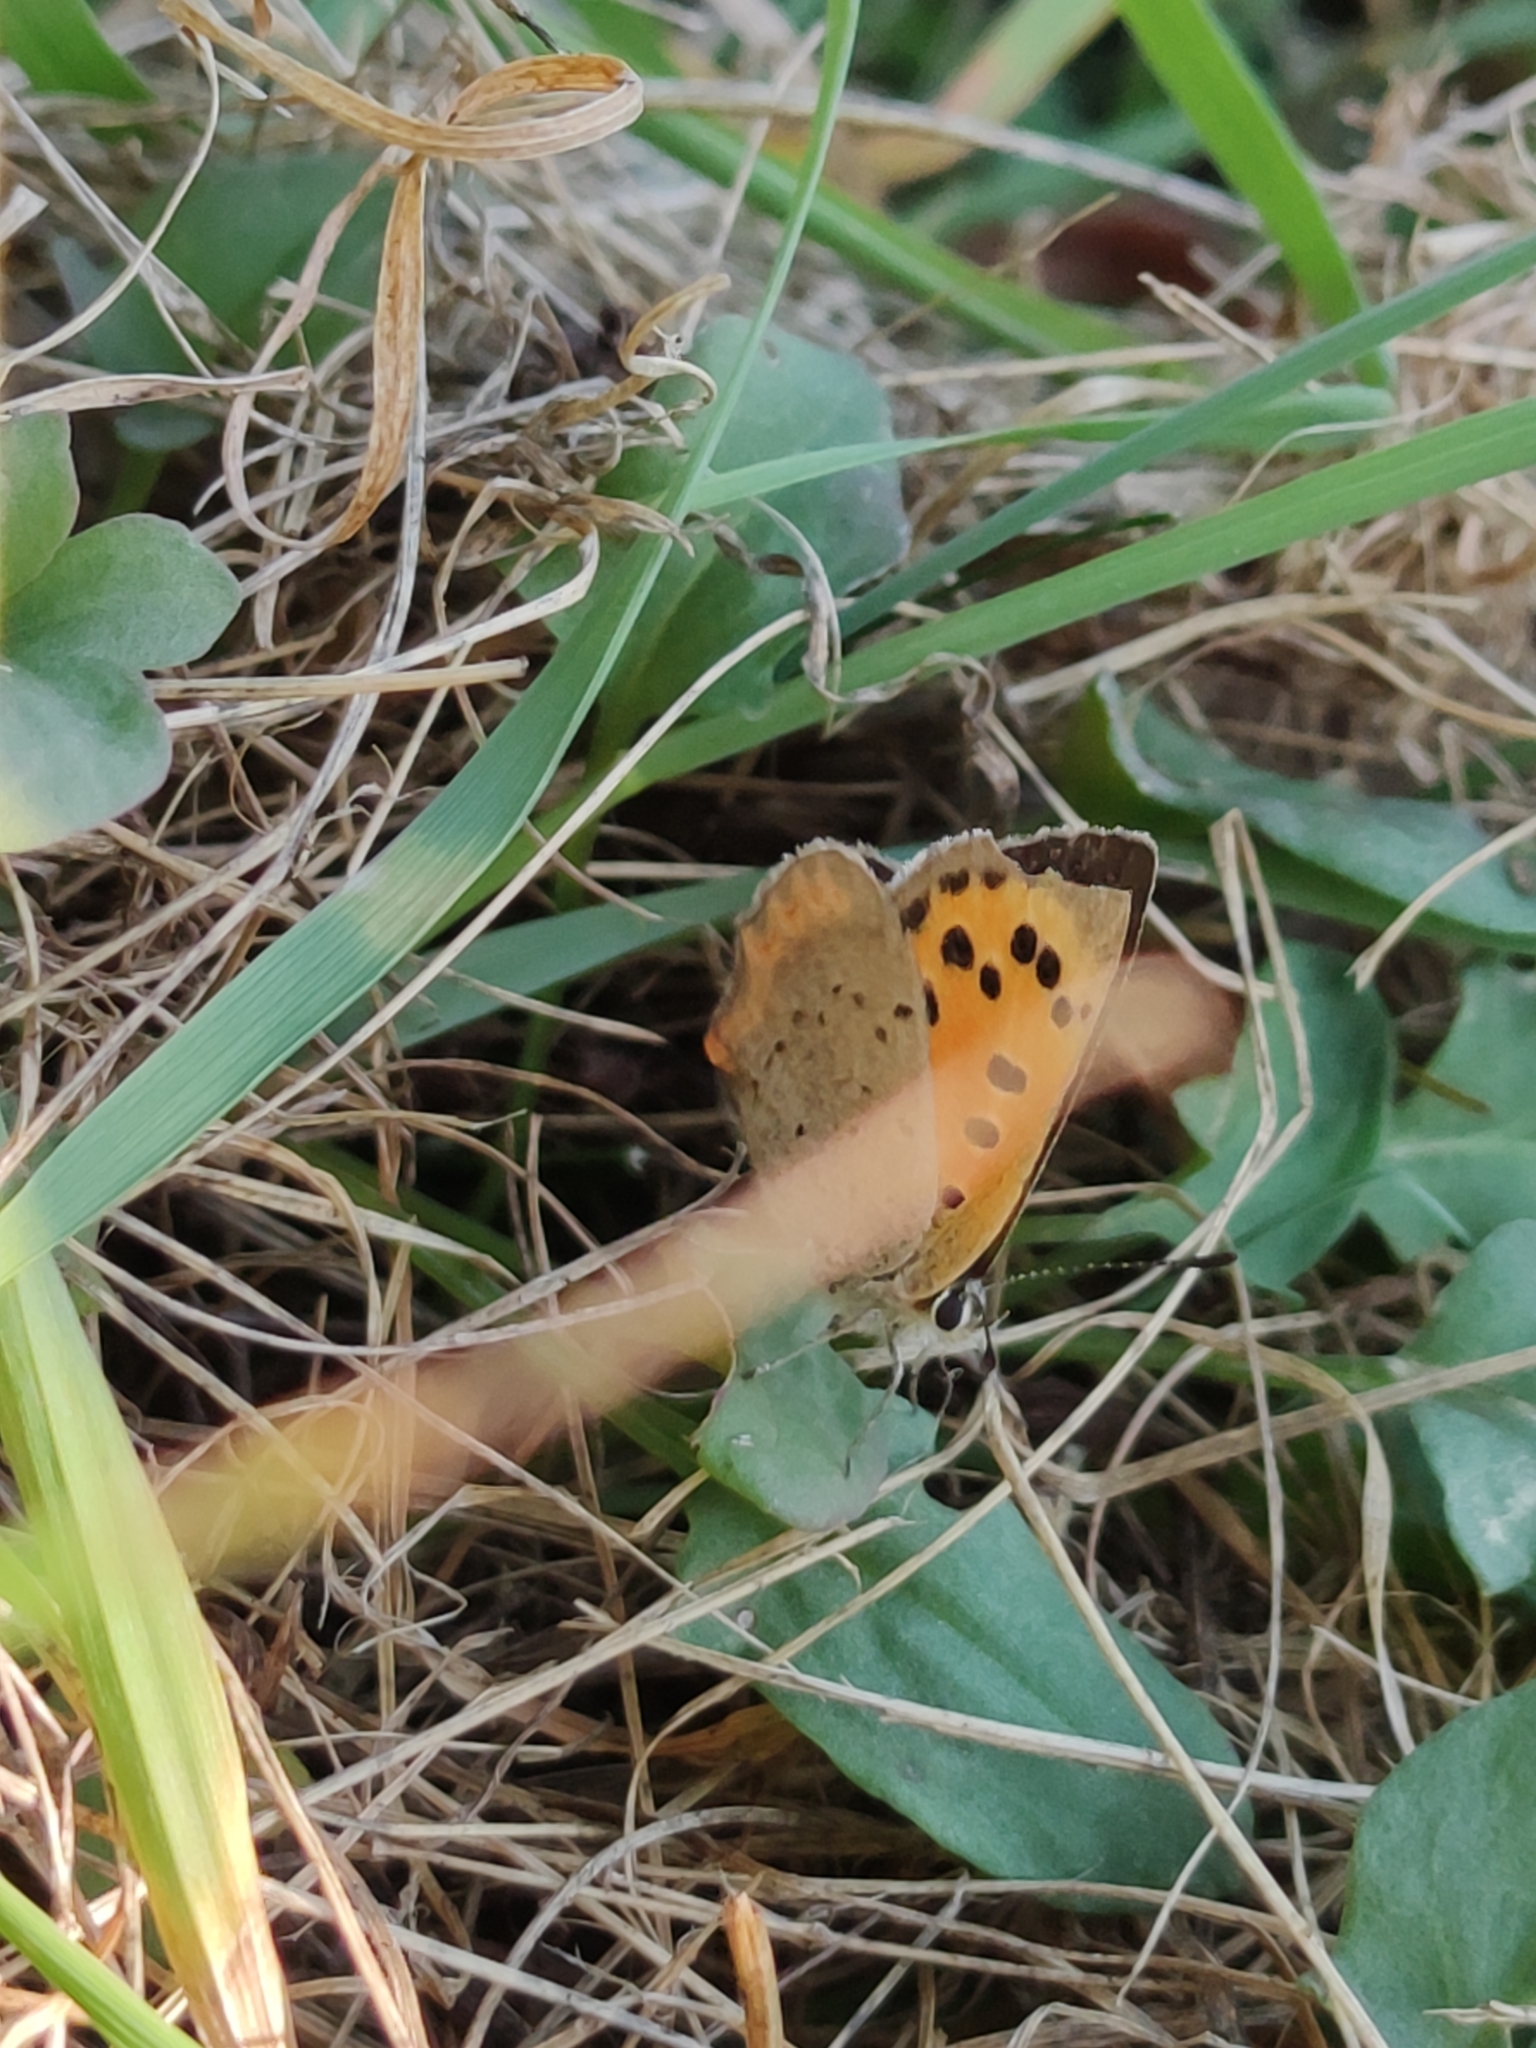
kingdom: Animalia
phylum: Arthropoda
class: Insecta
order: Lepidoptera
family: Lycaenidae
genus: Lycaena
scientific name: Lycaena phlaeas
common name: Small copper
